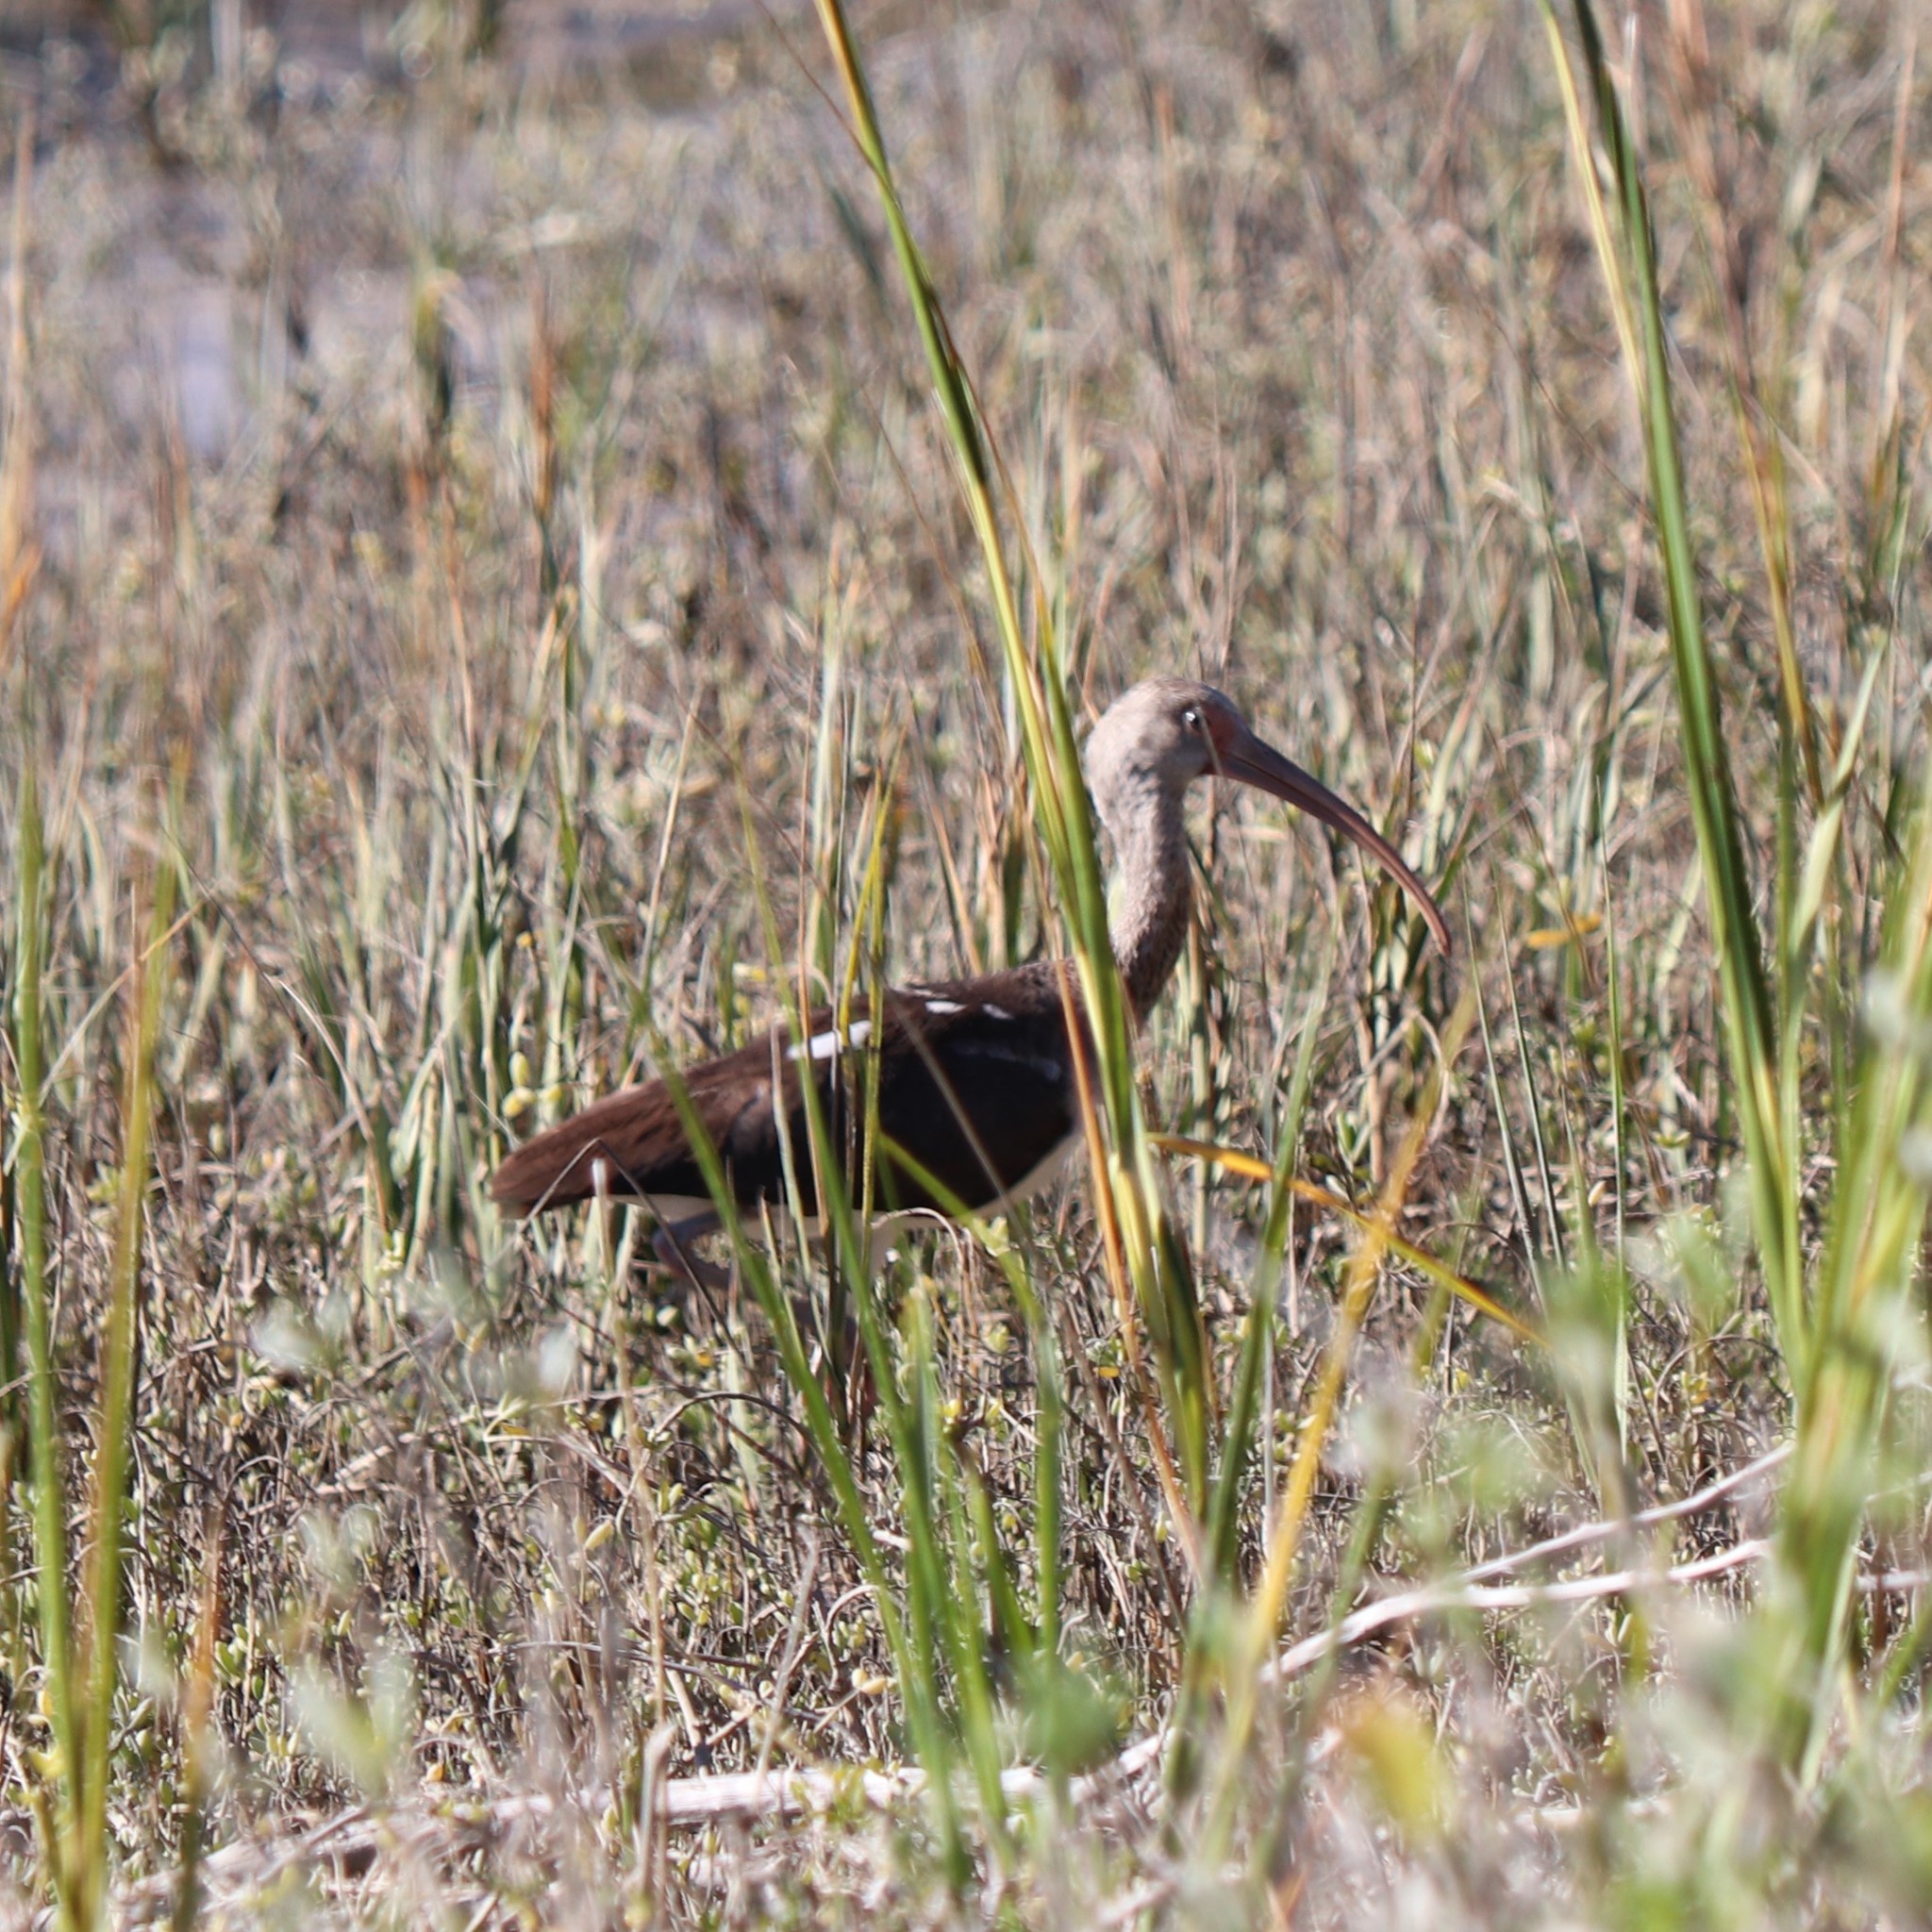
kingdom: Animalia
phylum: Chordata
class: Aves
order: Pelecaniformes
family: Threskiornithidae
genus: Eudocimus
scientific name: Eudocimus albus
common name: White ibis
